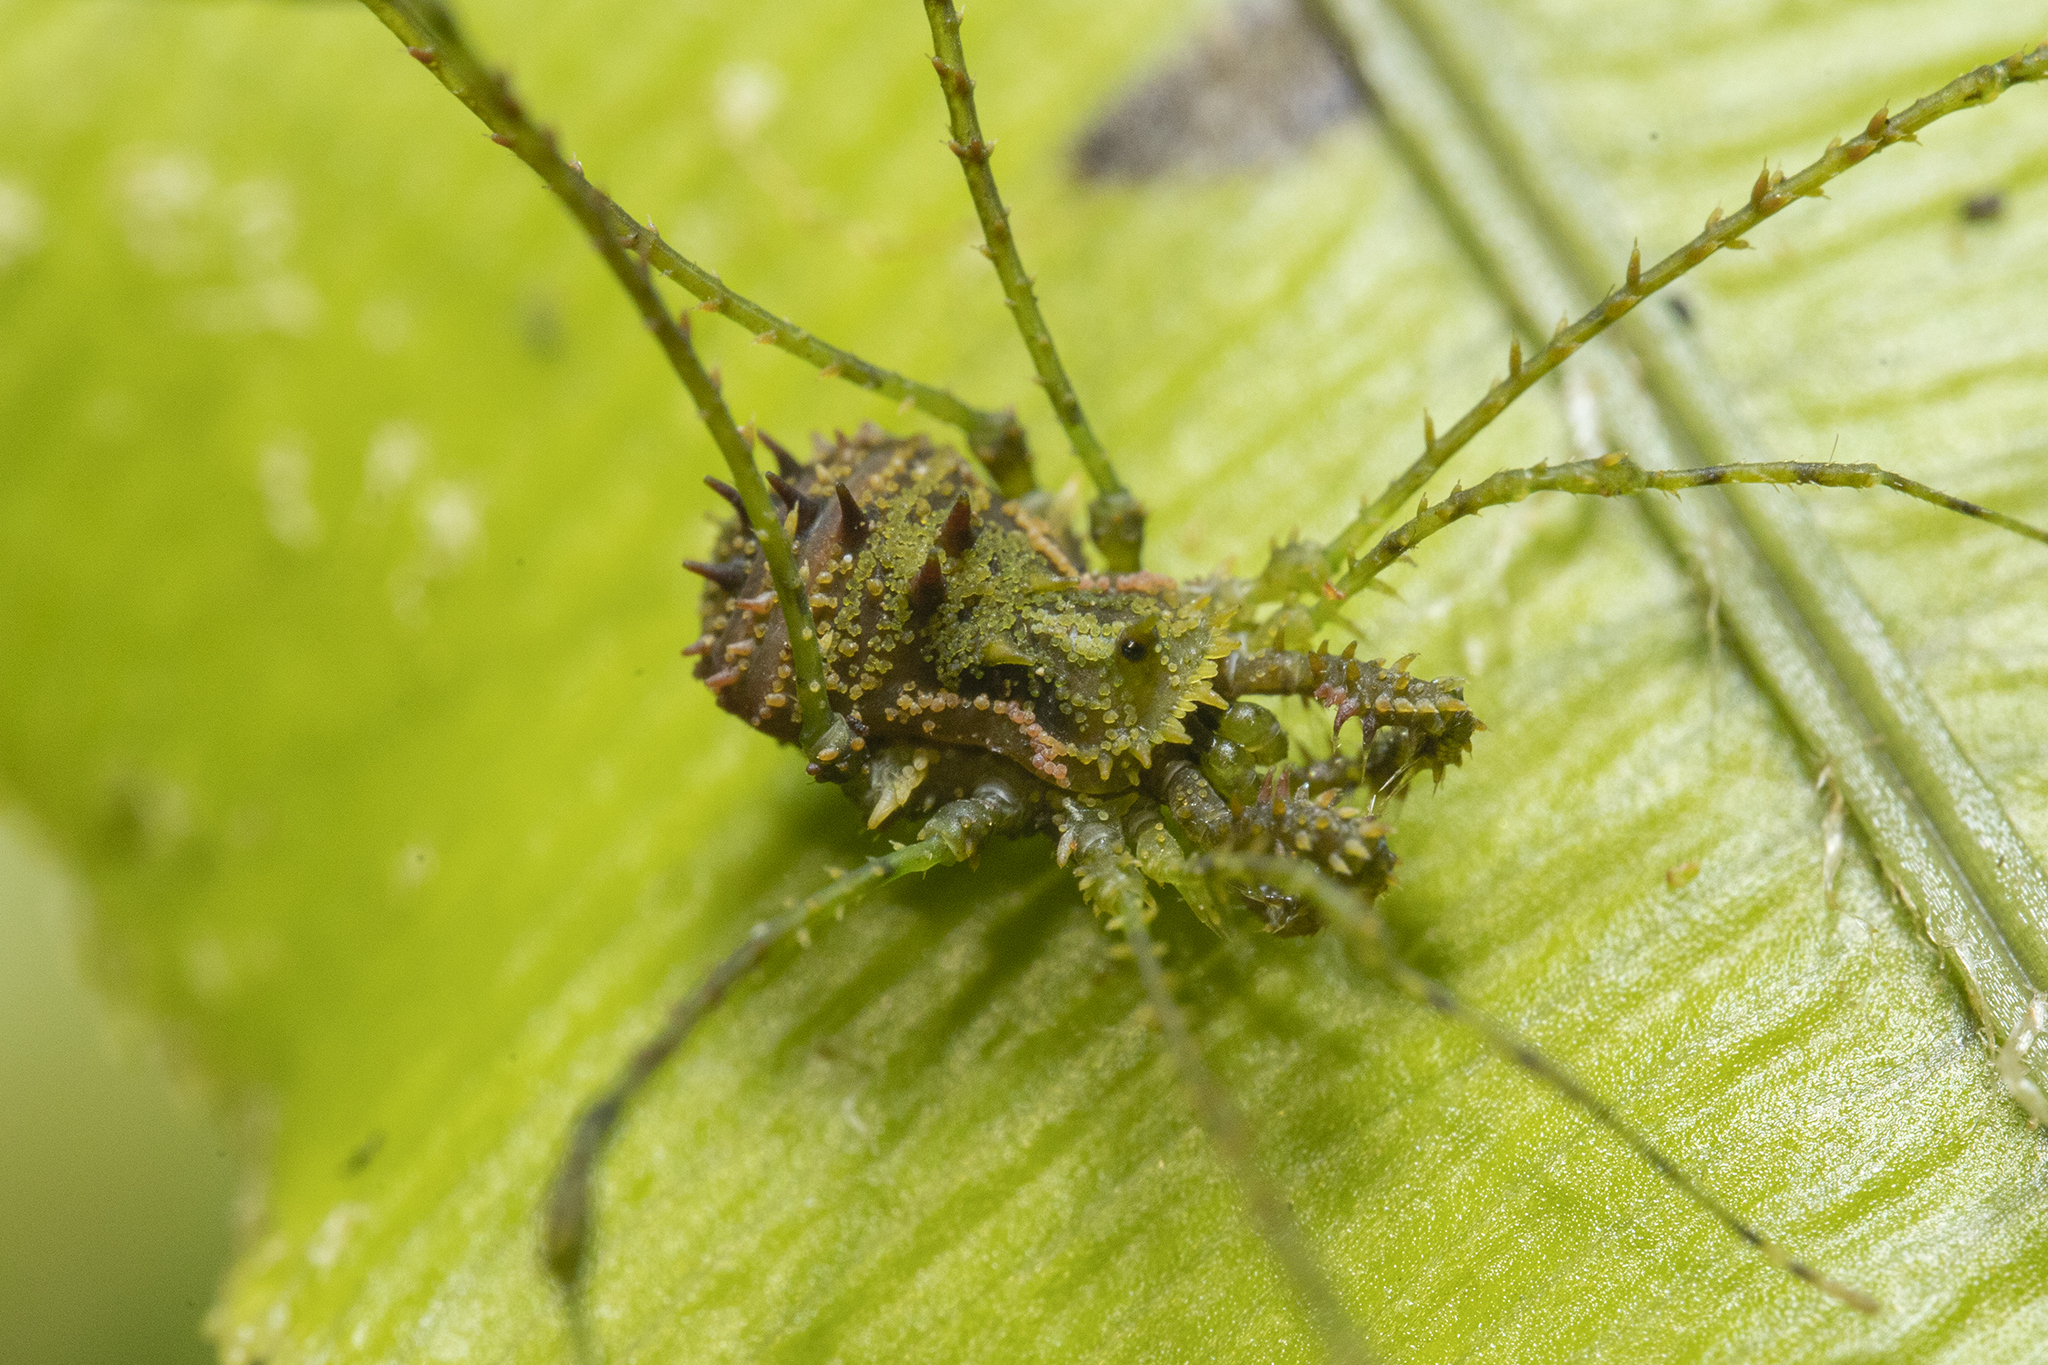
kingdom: Animalia
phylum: Arthropoda
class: Arachnida
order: Opiliones
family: Triaenonychidae
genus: Algidia
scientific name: Algidia viridata
